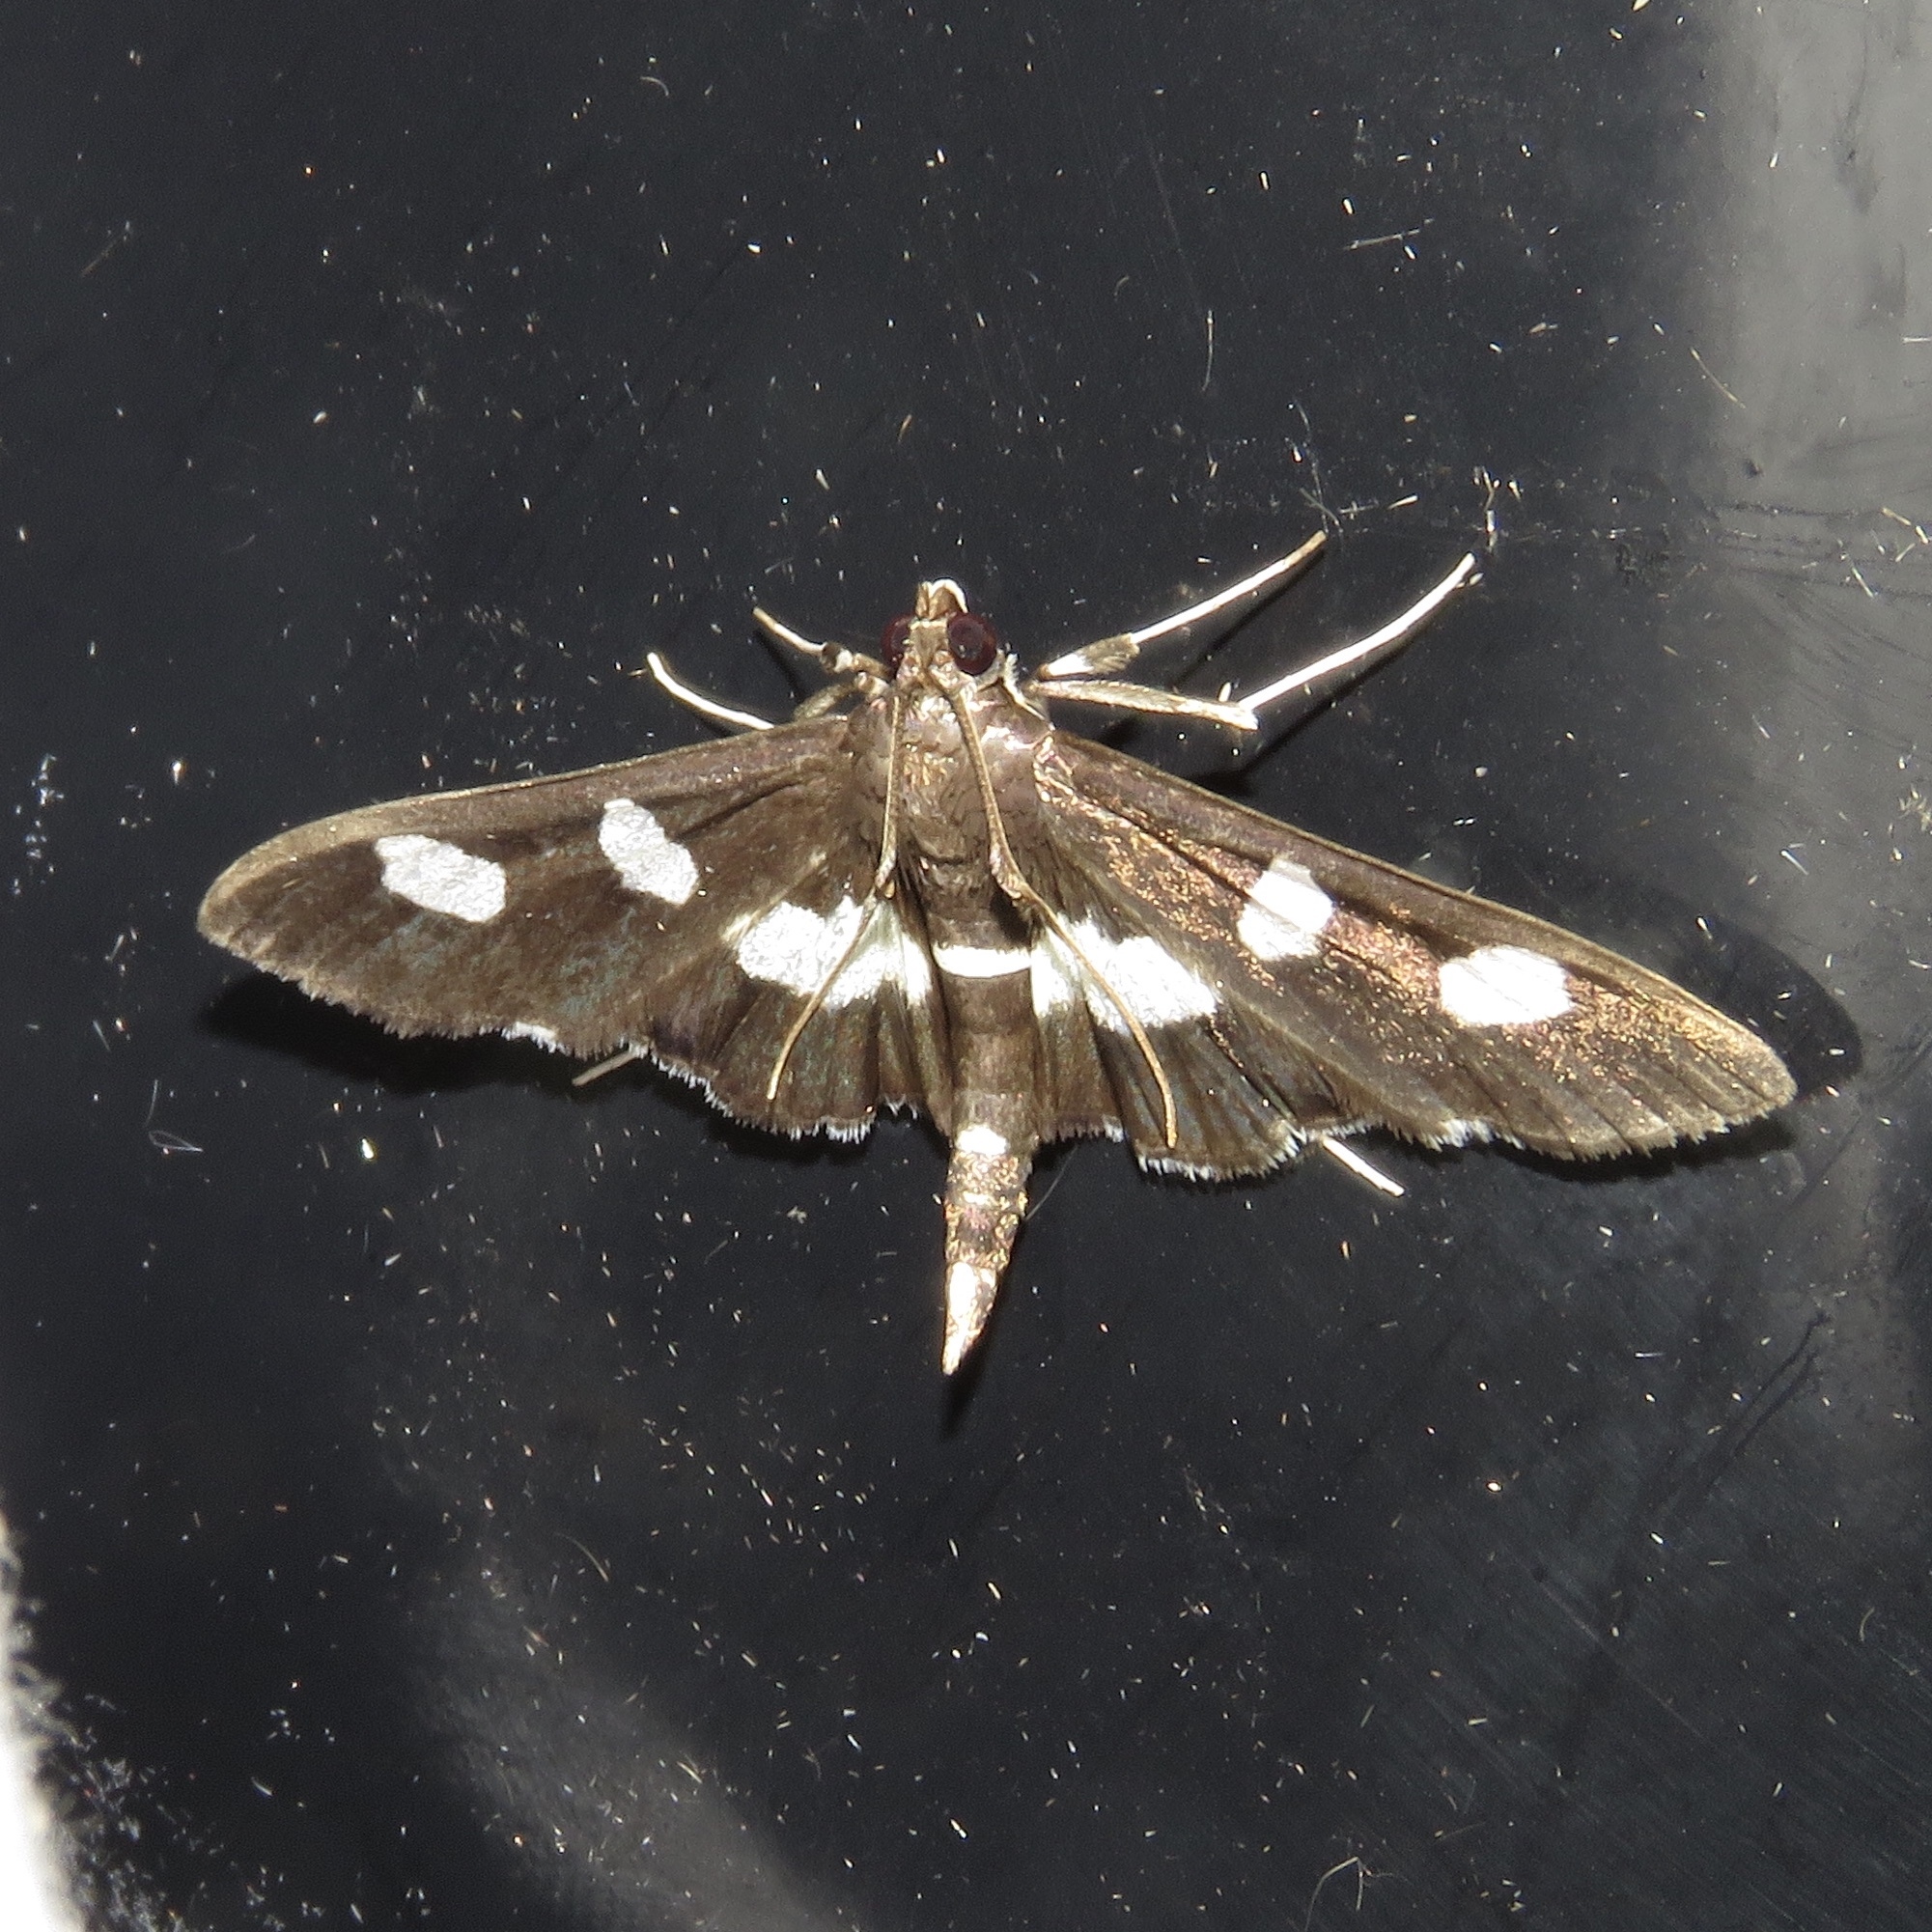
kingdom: Animalia
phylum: Arthropoda
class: Insecta
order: Lepidoptera
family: Crambidae
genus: Desmia
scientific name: Desmia
